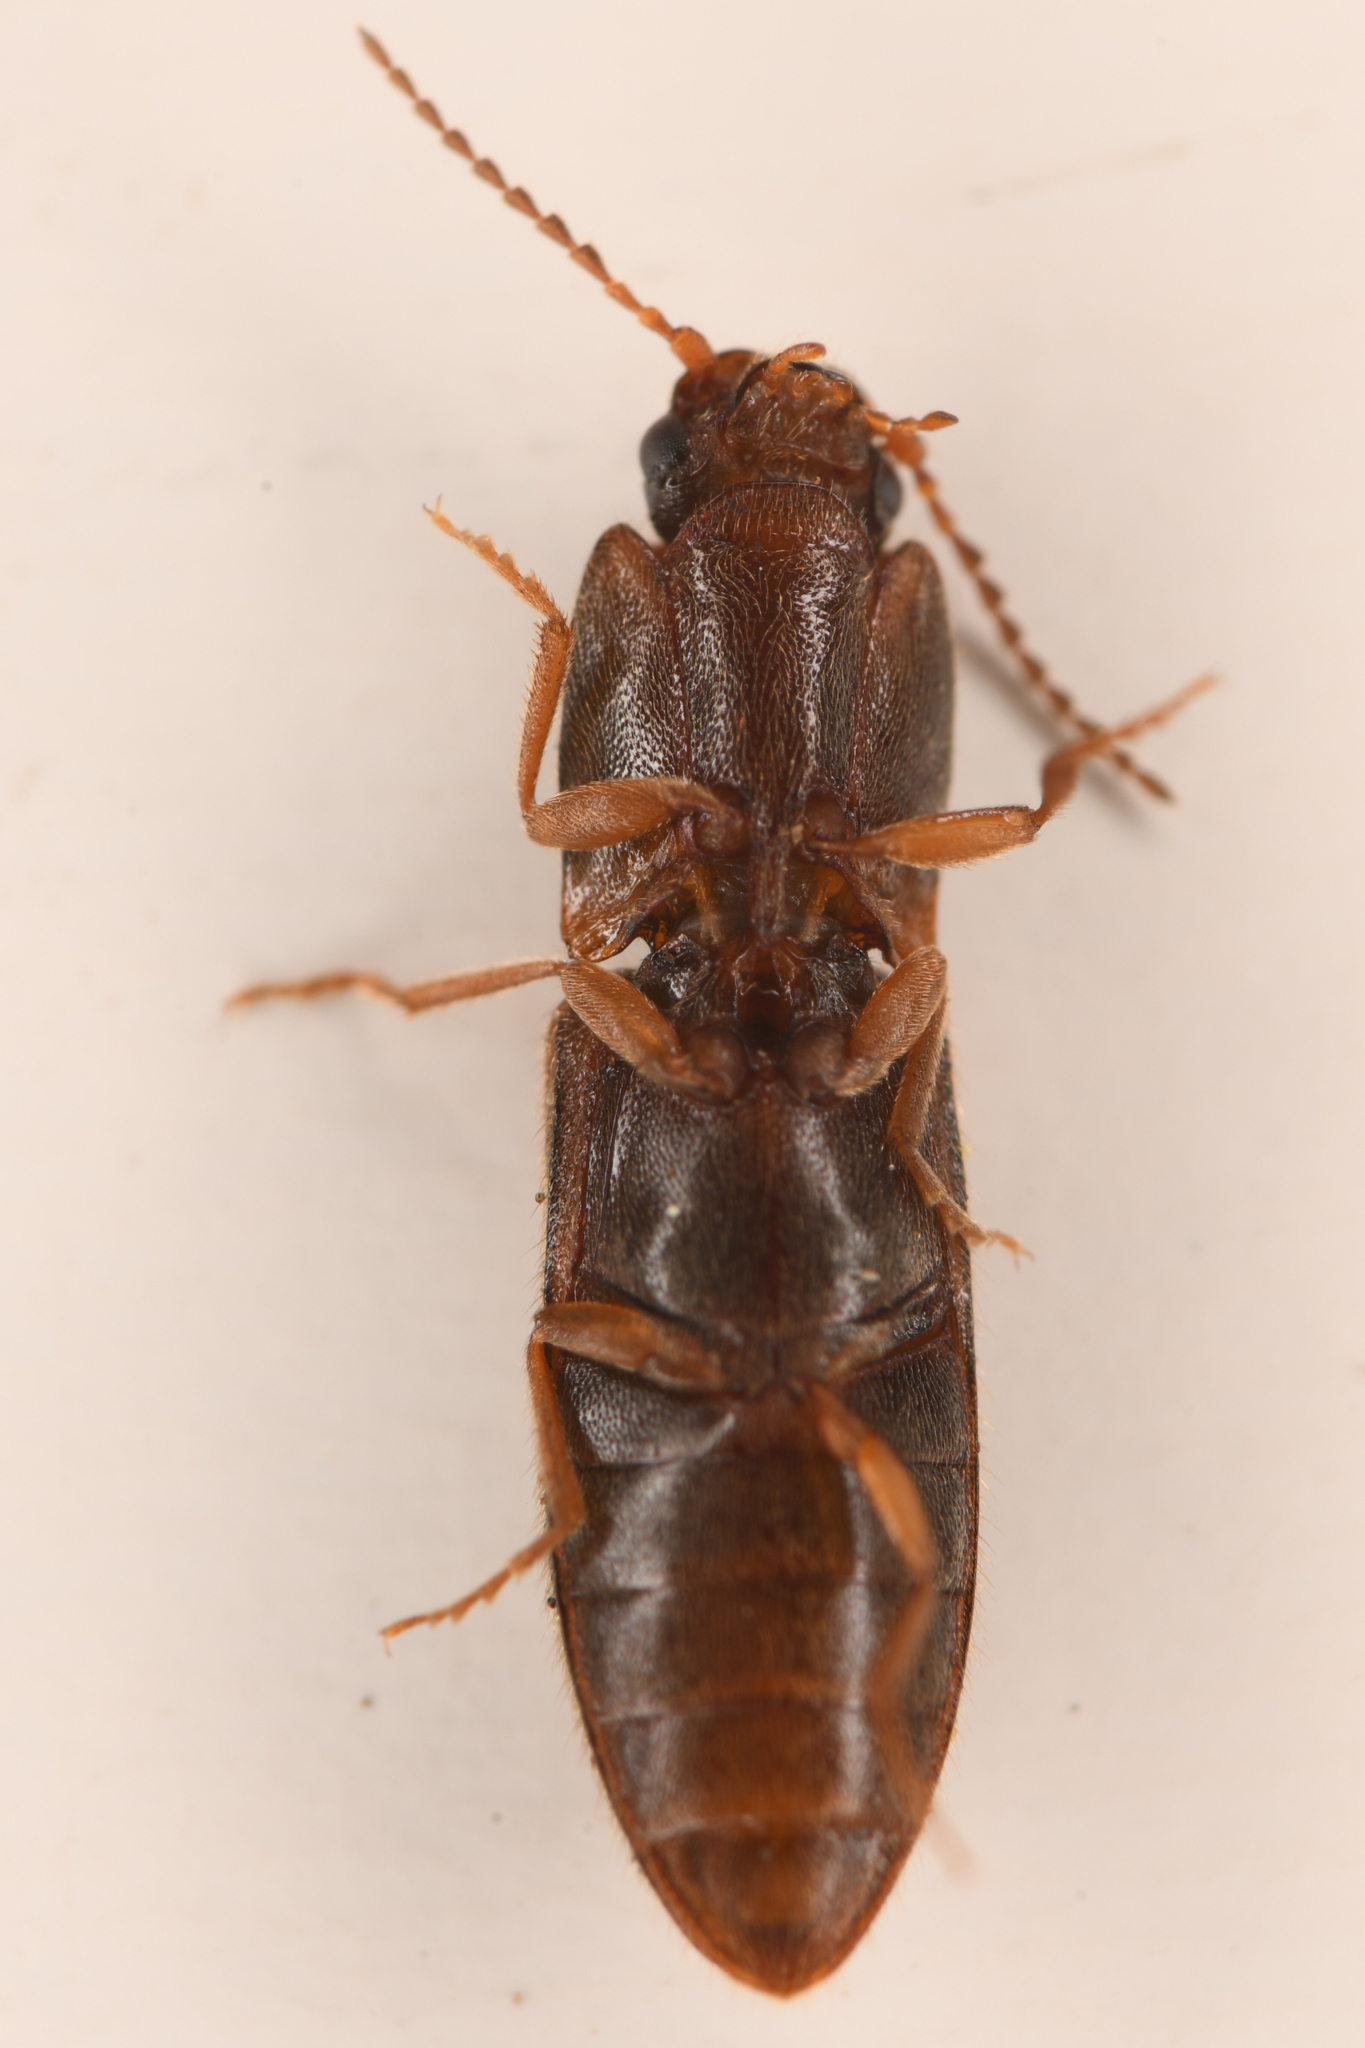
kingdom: Animalia
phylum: Arthropoda
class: Insecta
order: Coleoptera
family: Elateridae
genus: Athous
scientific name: Athous imitans
